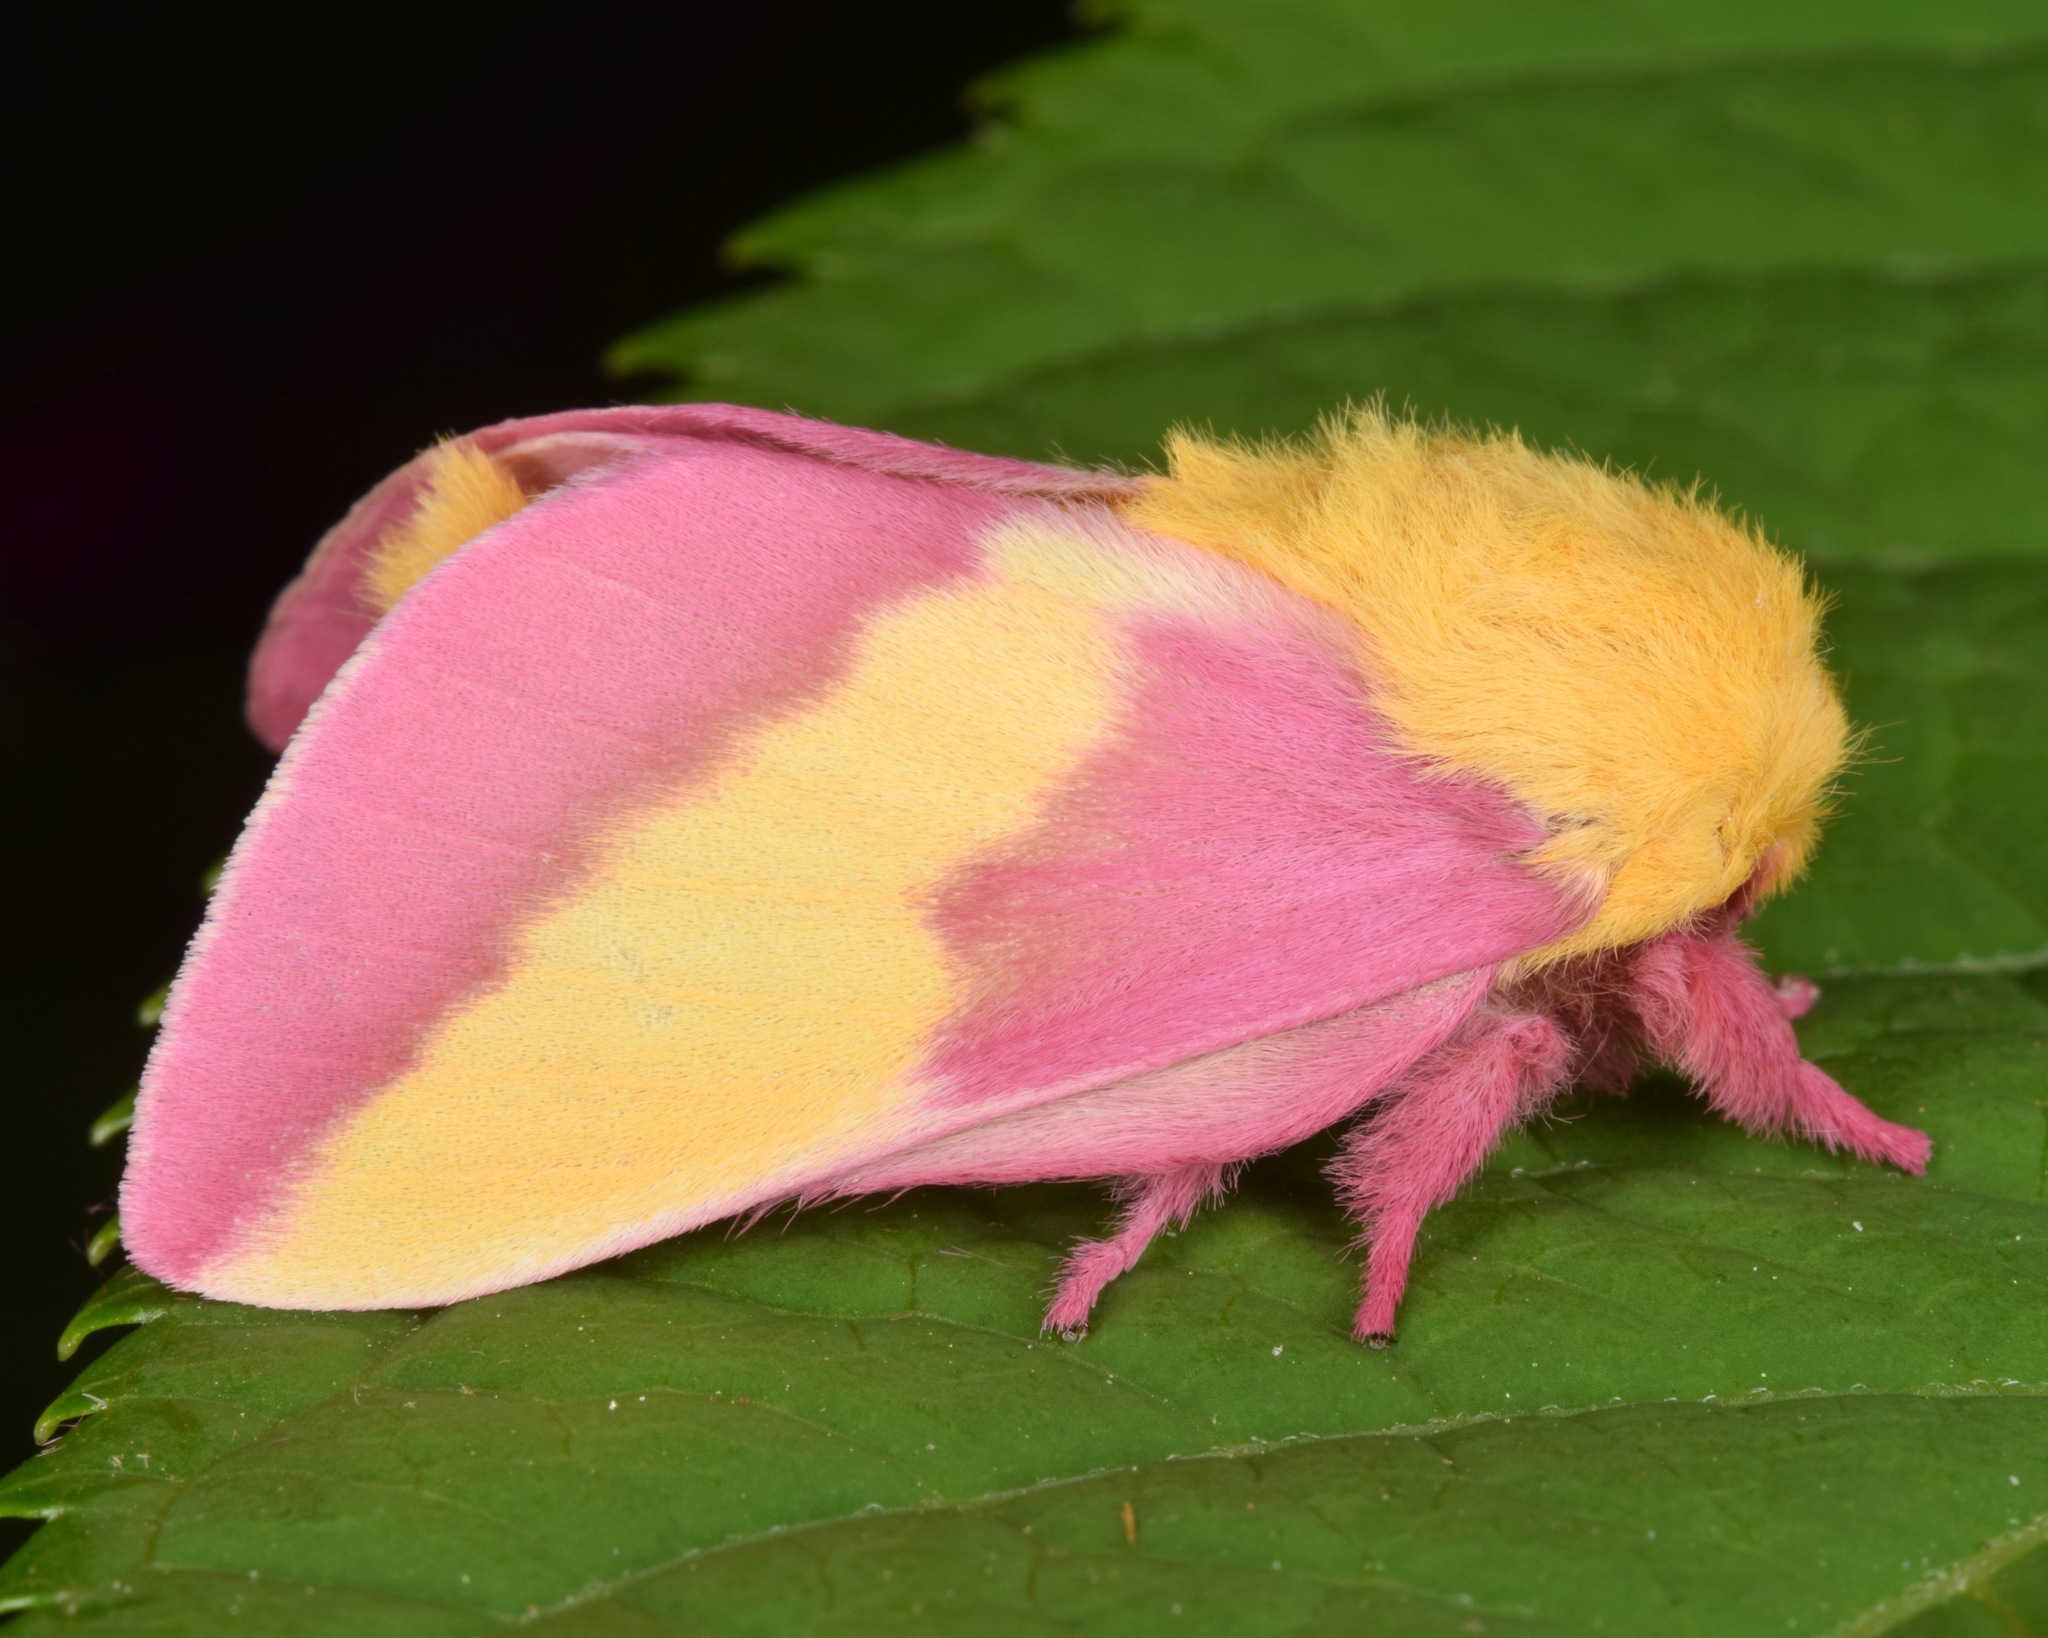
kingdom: Animalia
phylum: Arthropoda
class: Insecta
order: Lepidoptera
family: Saturniidae
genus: Dryocampa
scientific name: Dryocampa rubicunda
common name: Rosy maple moth
